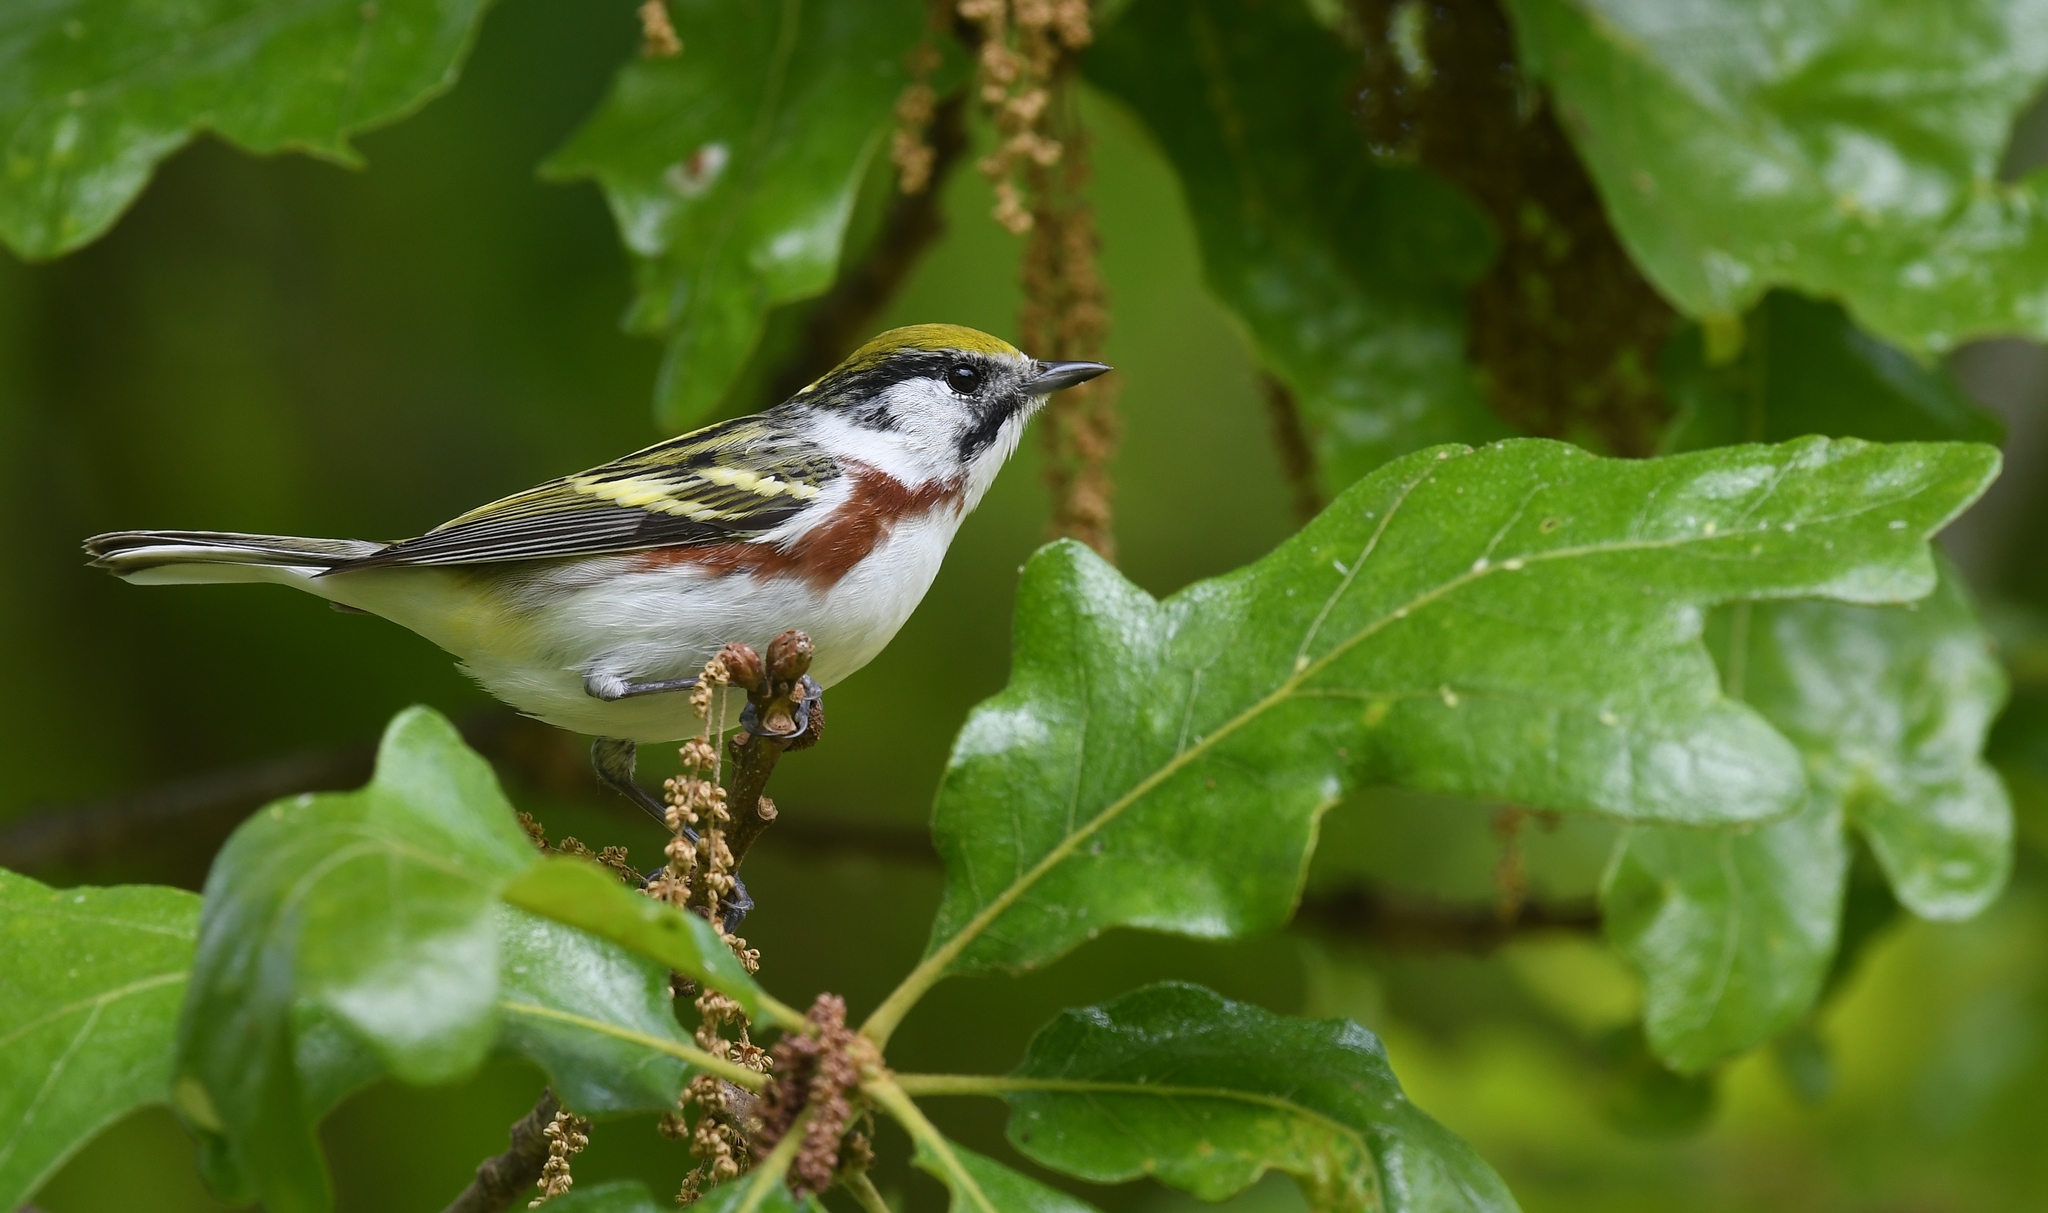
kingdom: Animalia
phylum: Chordata
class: Aves
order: Passeriformes
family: Parulidae
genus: Setophaga
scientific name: Setophaga pensylvanica
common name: Chestnut-sided warbler
